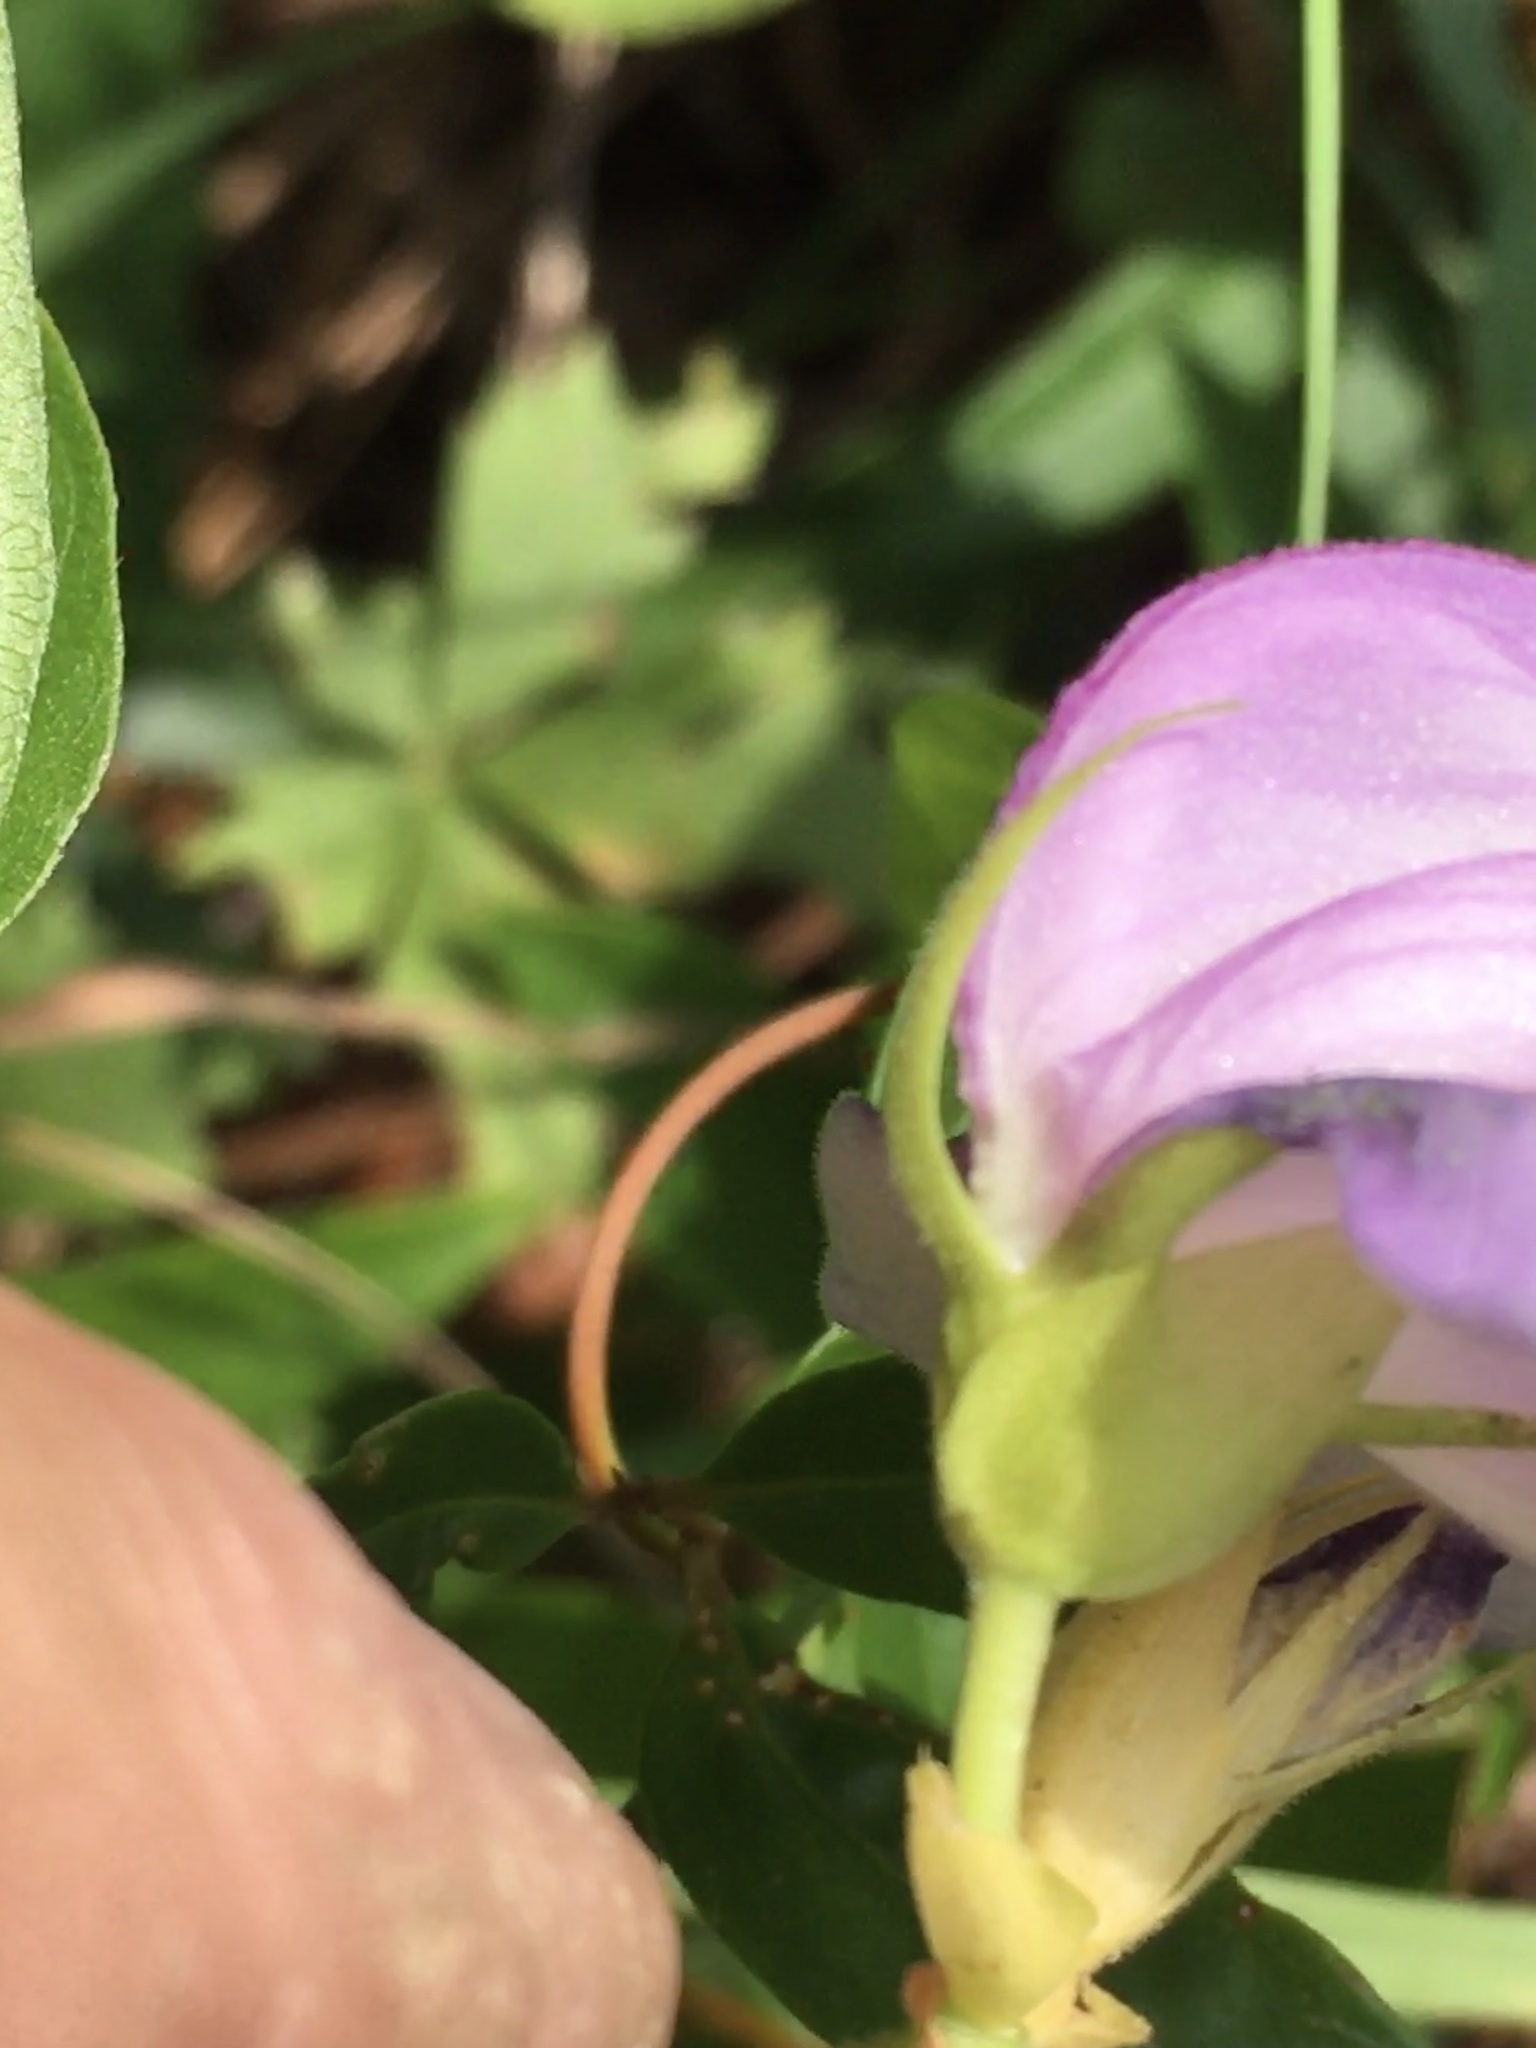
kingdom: Plantae
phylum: Tracheophyta
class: Magnoliopsida
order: Fabales
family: Fabaceae
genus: Centrosema
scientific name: Centrosema virginianum
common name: Butterfly-pea
